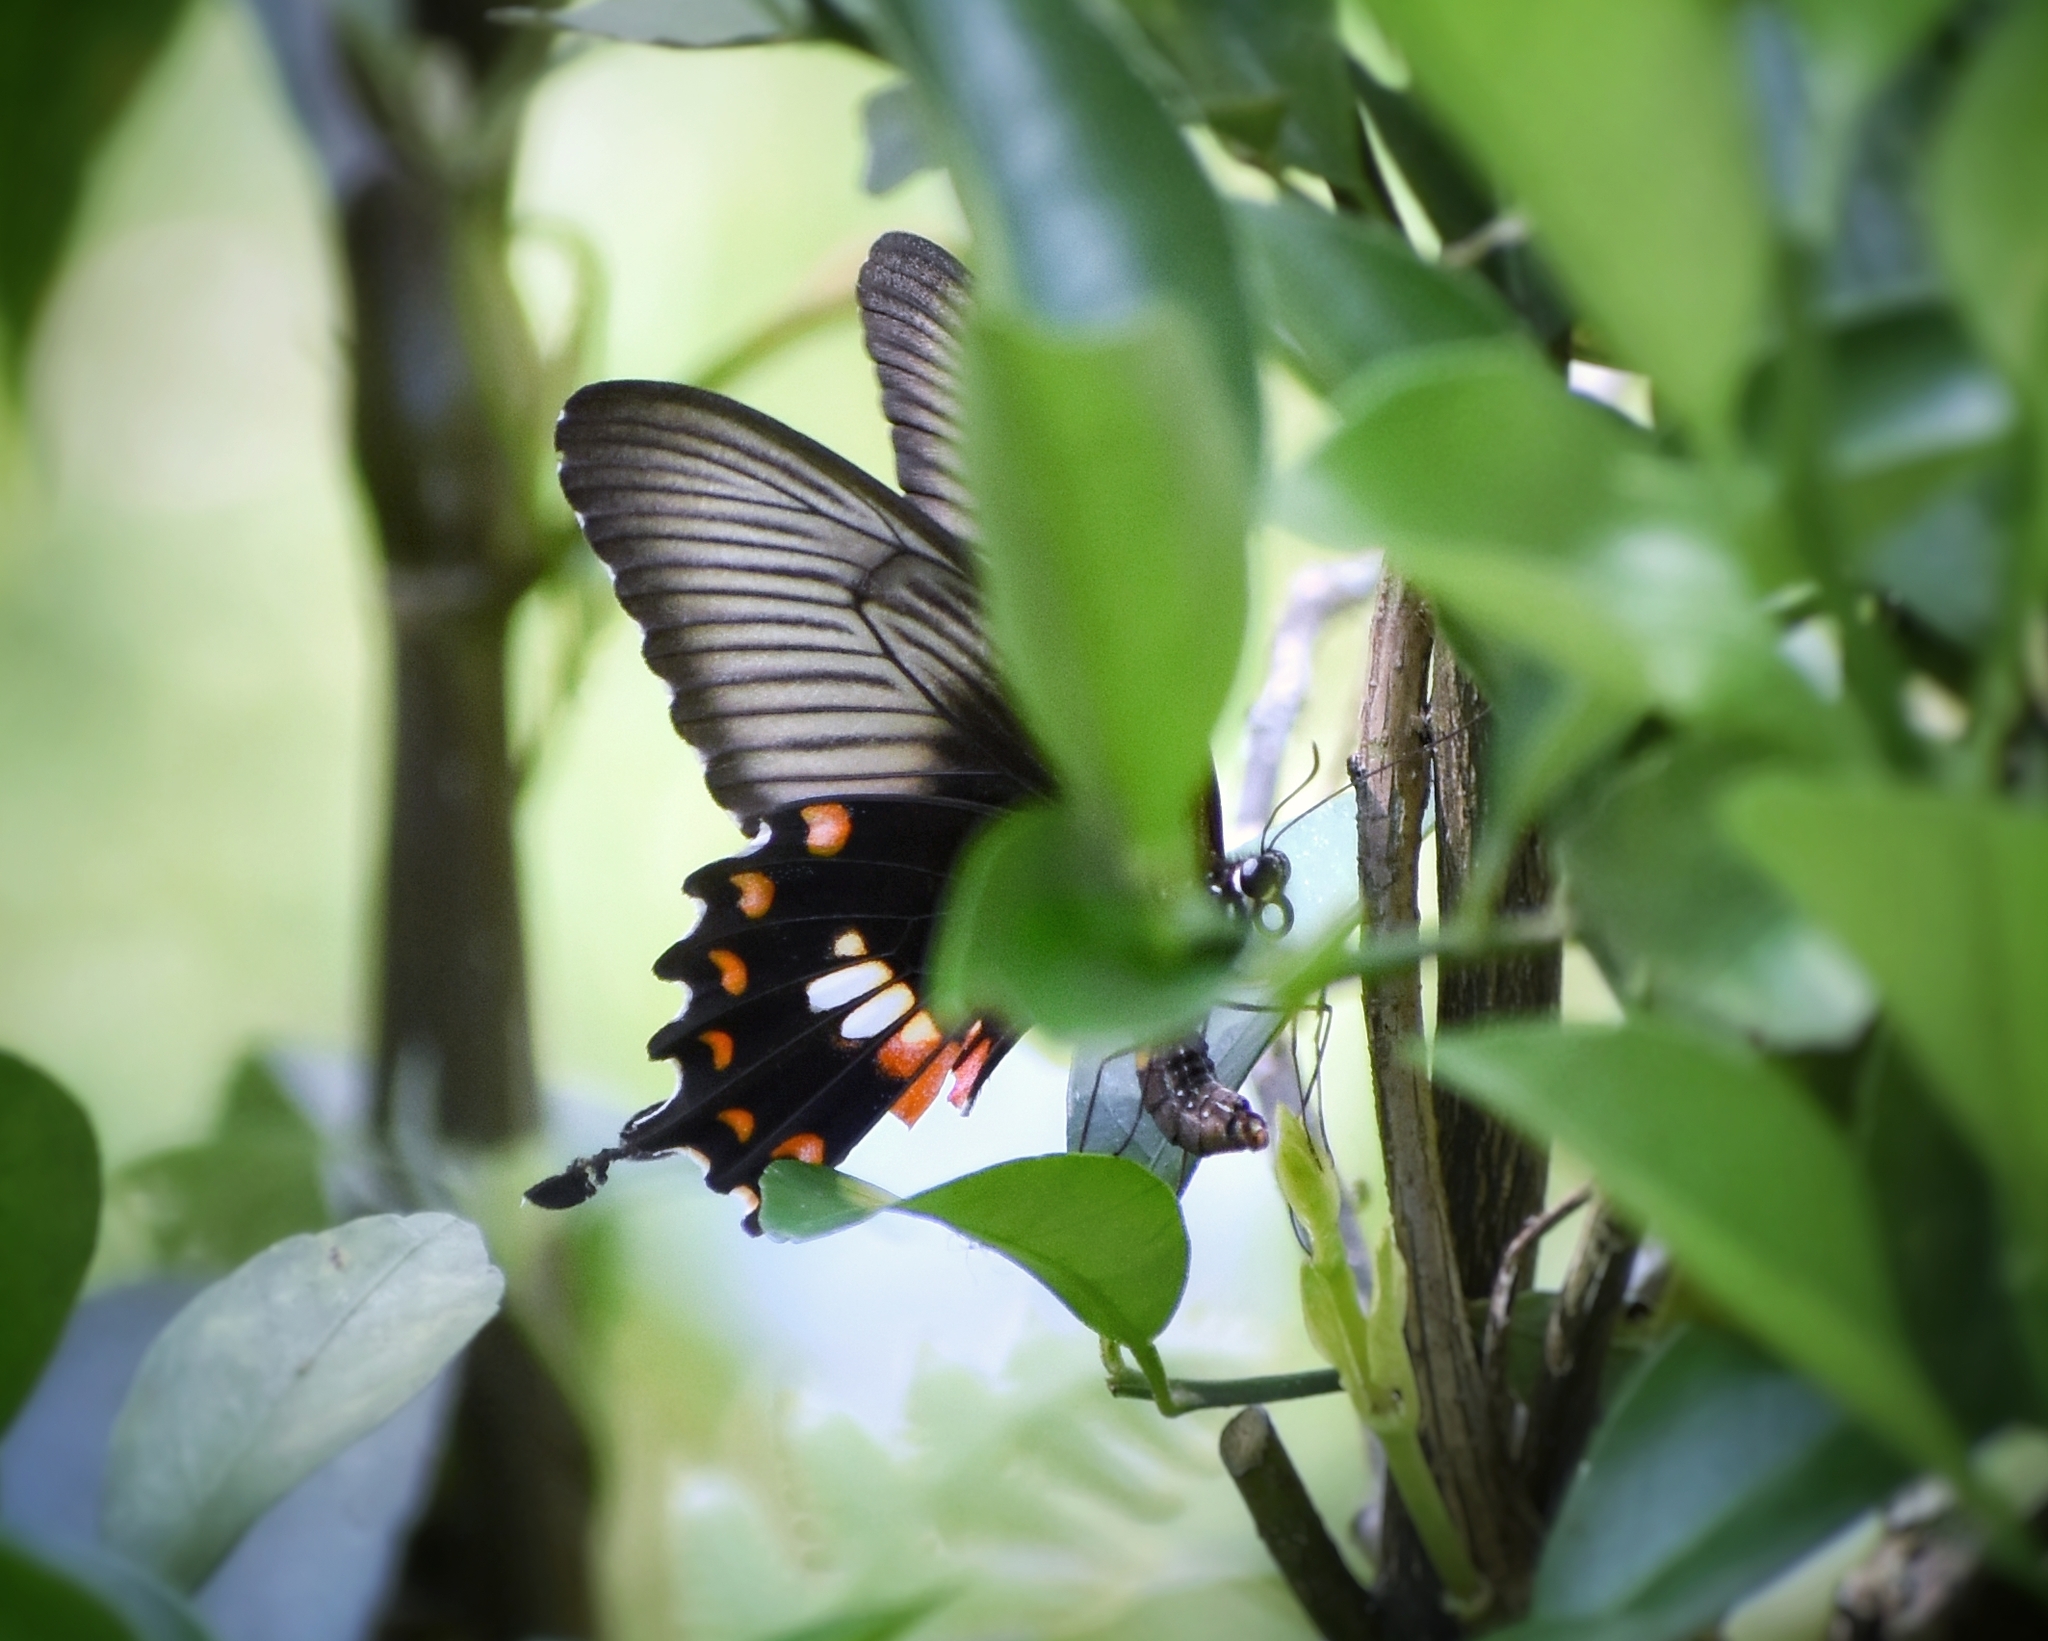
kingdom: Animalia
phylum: Arthropoda
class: Insecta
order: Lepidoptera
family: Papilionidae
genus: Papilio
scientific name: Papilio polytes
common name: Common mormon
